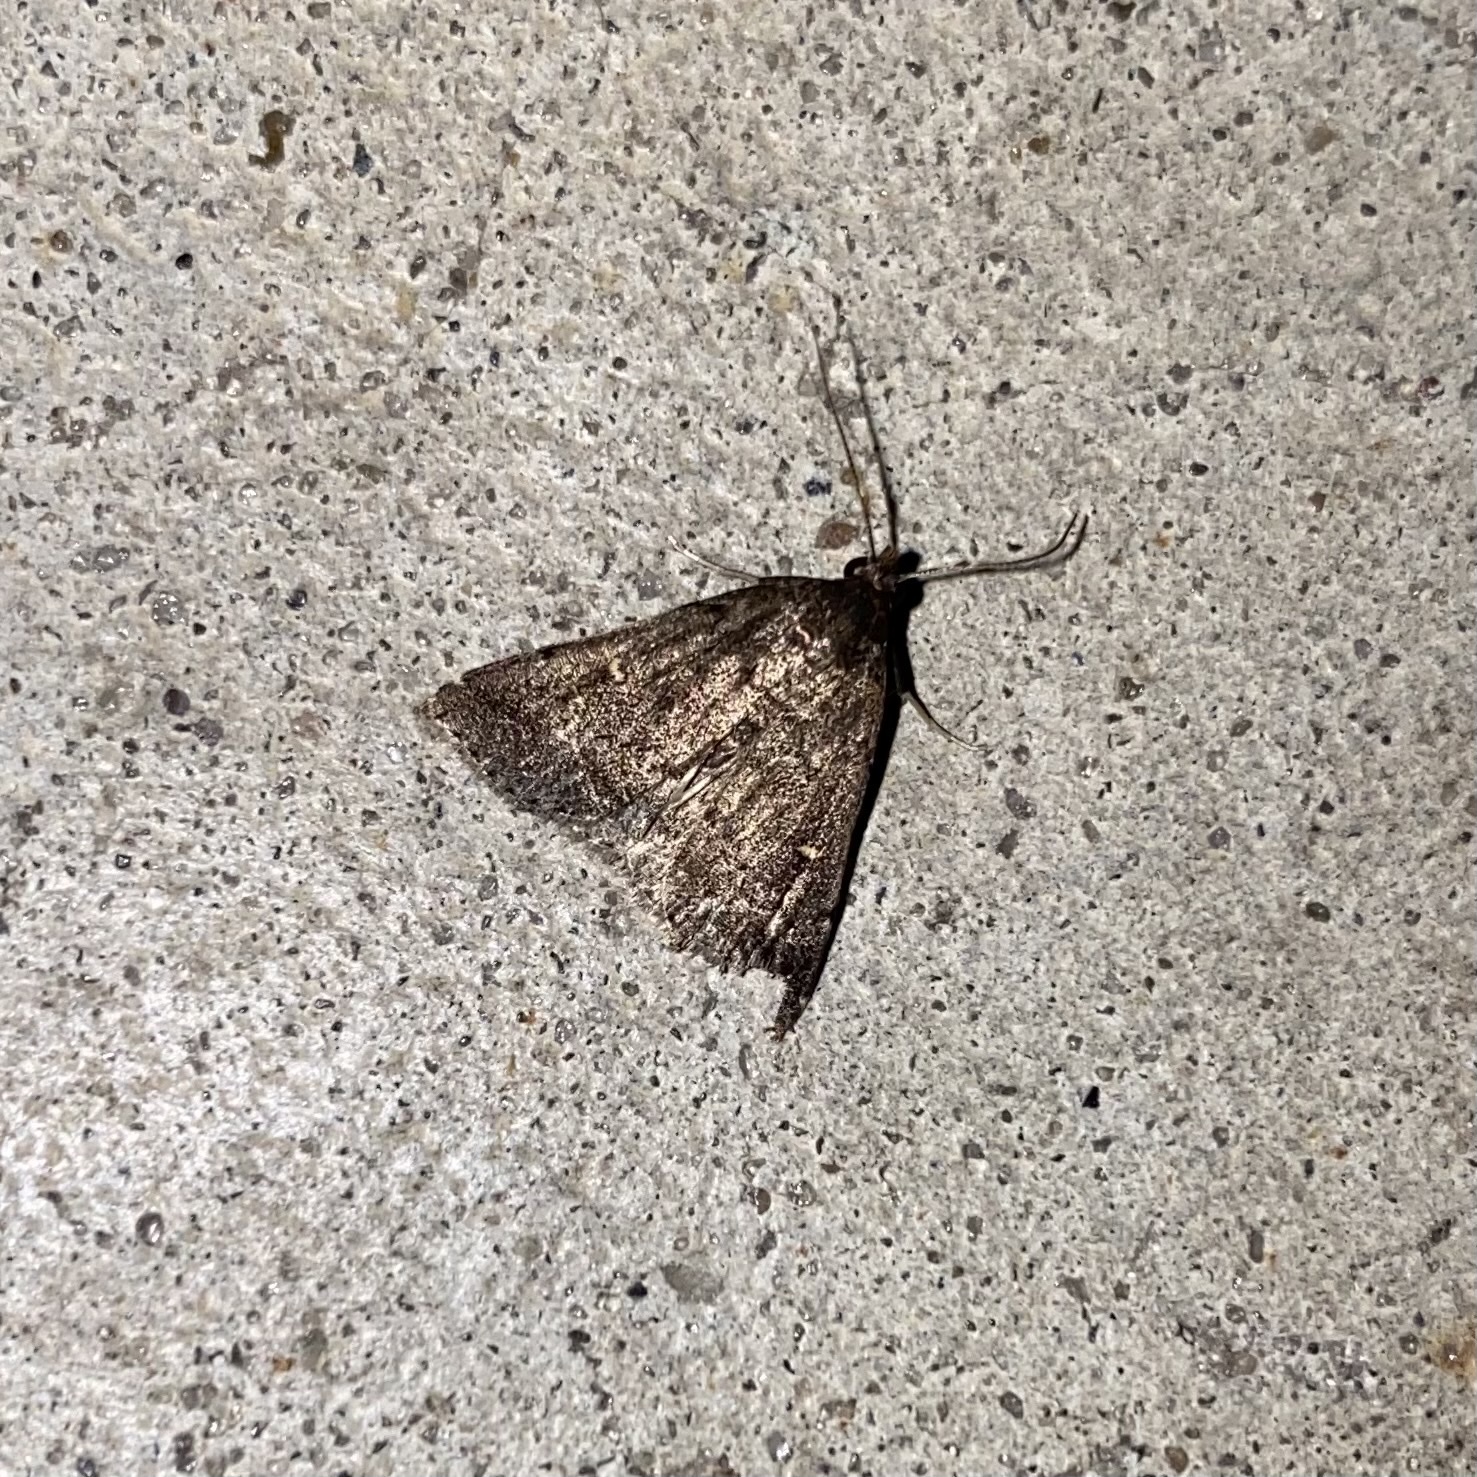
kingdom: Animalia
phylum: Arthropoda
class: Insecta
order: Lepidoptera
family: Erebidae
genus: Tetanolita
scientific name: Tetanolita mynesalis
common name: Smoky tetanolita moth
